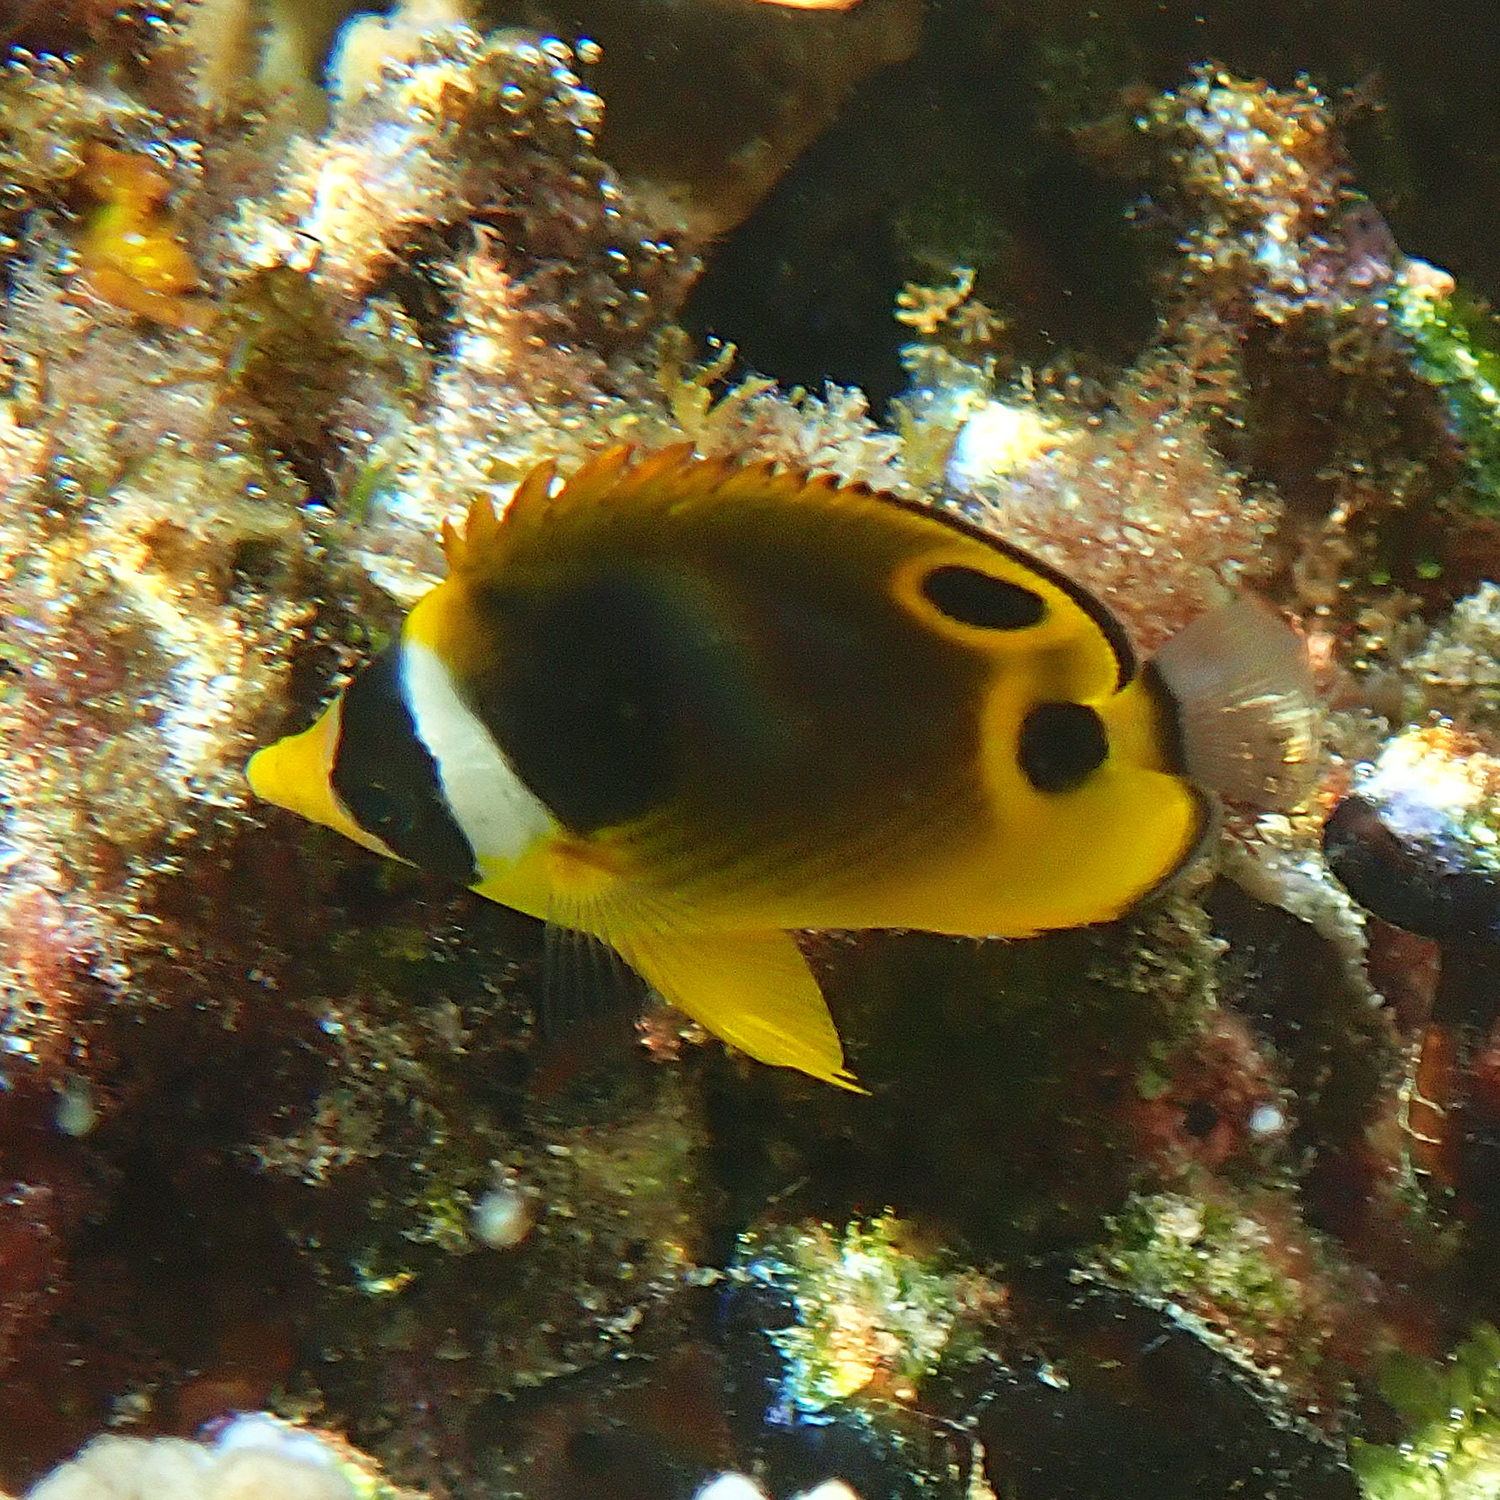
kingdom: Animalia
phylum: Chordata
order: Perciformes
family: Chaetodontidae
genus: Chaetodon
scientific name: Chaetodon lunula
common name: Raccoon butterflyfish
